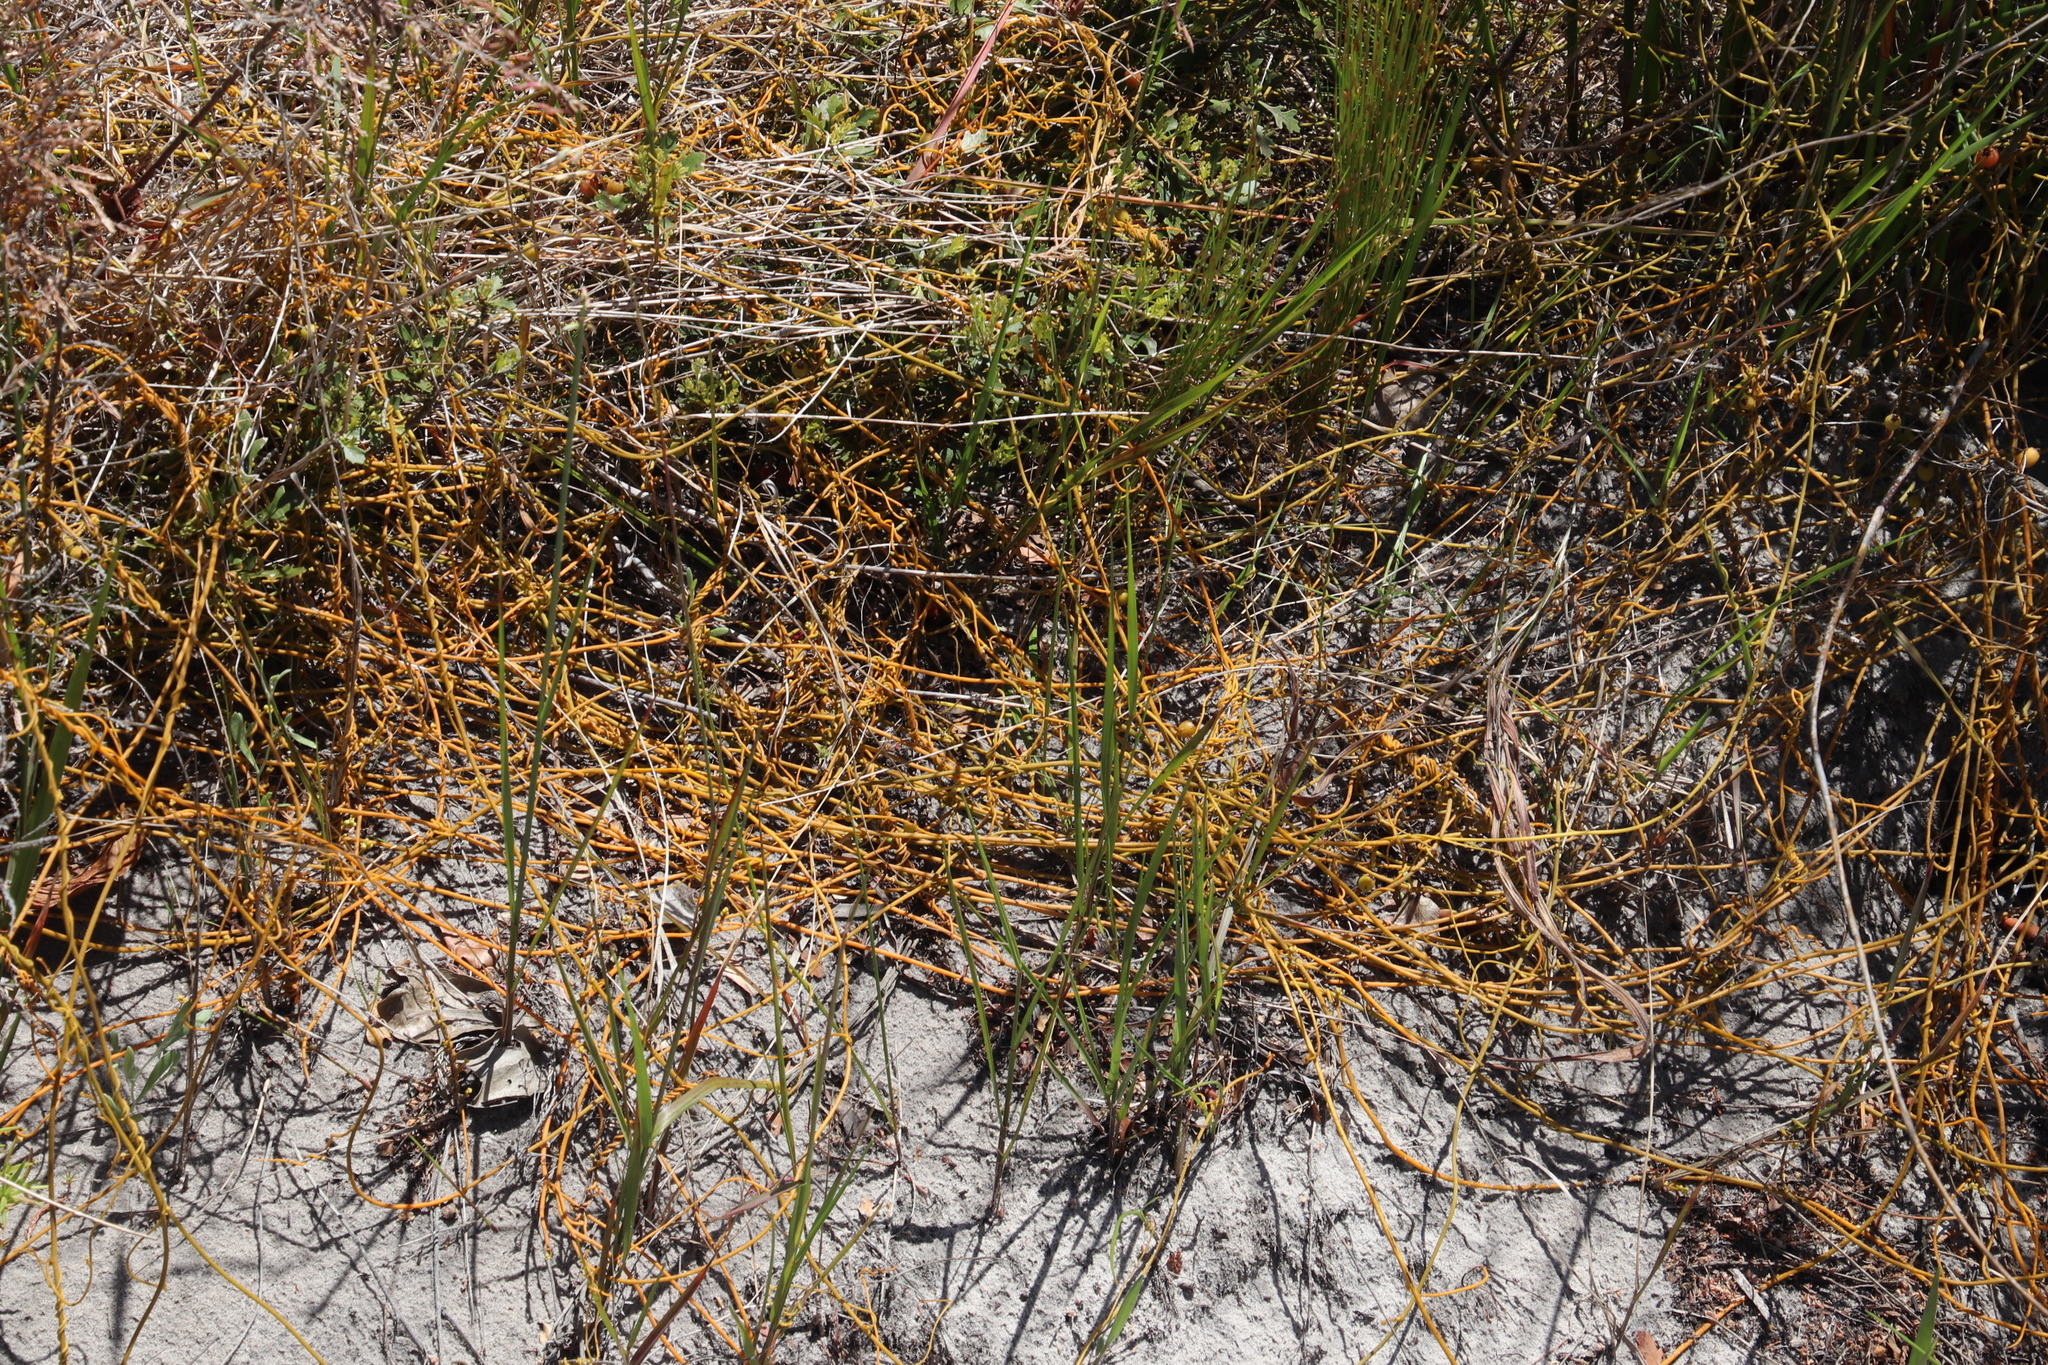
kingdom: Plantae
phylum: Tracheophyta
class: Magnoliopsida
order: Laurales
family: Lauraceae
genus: Cassytha
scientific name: Cassytha ciliolata
